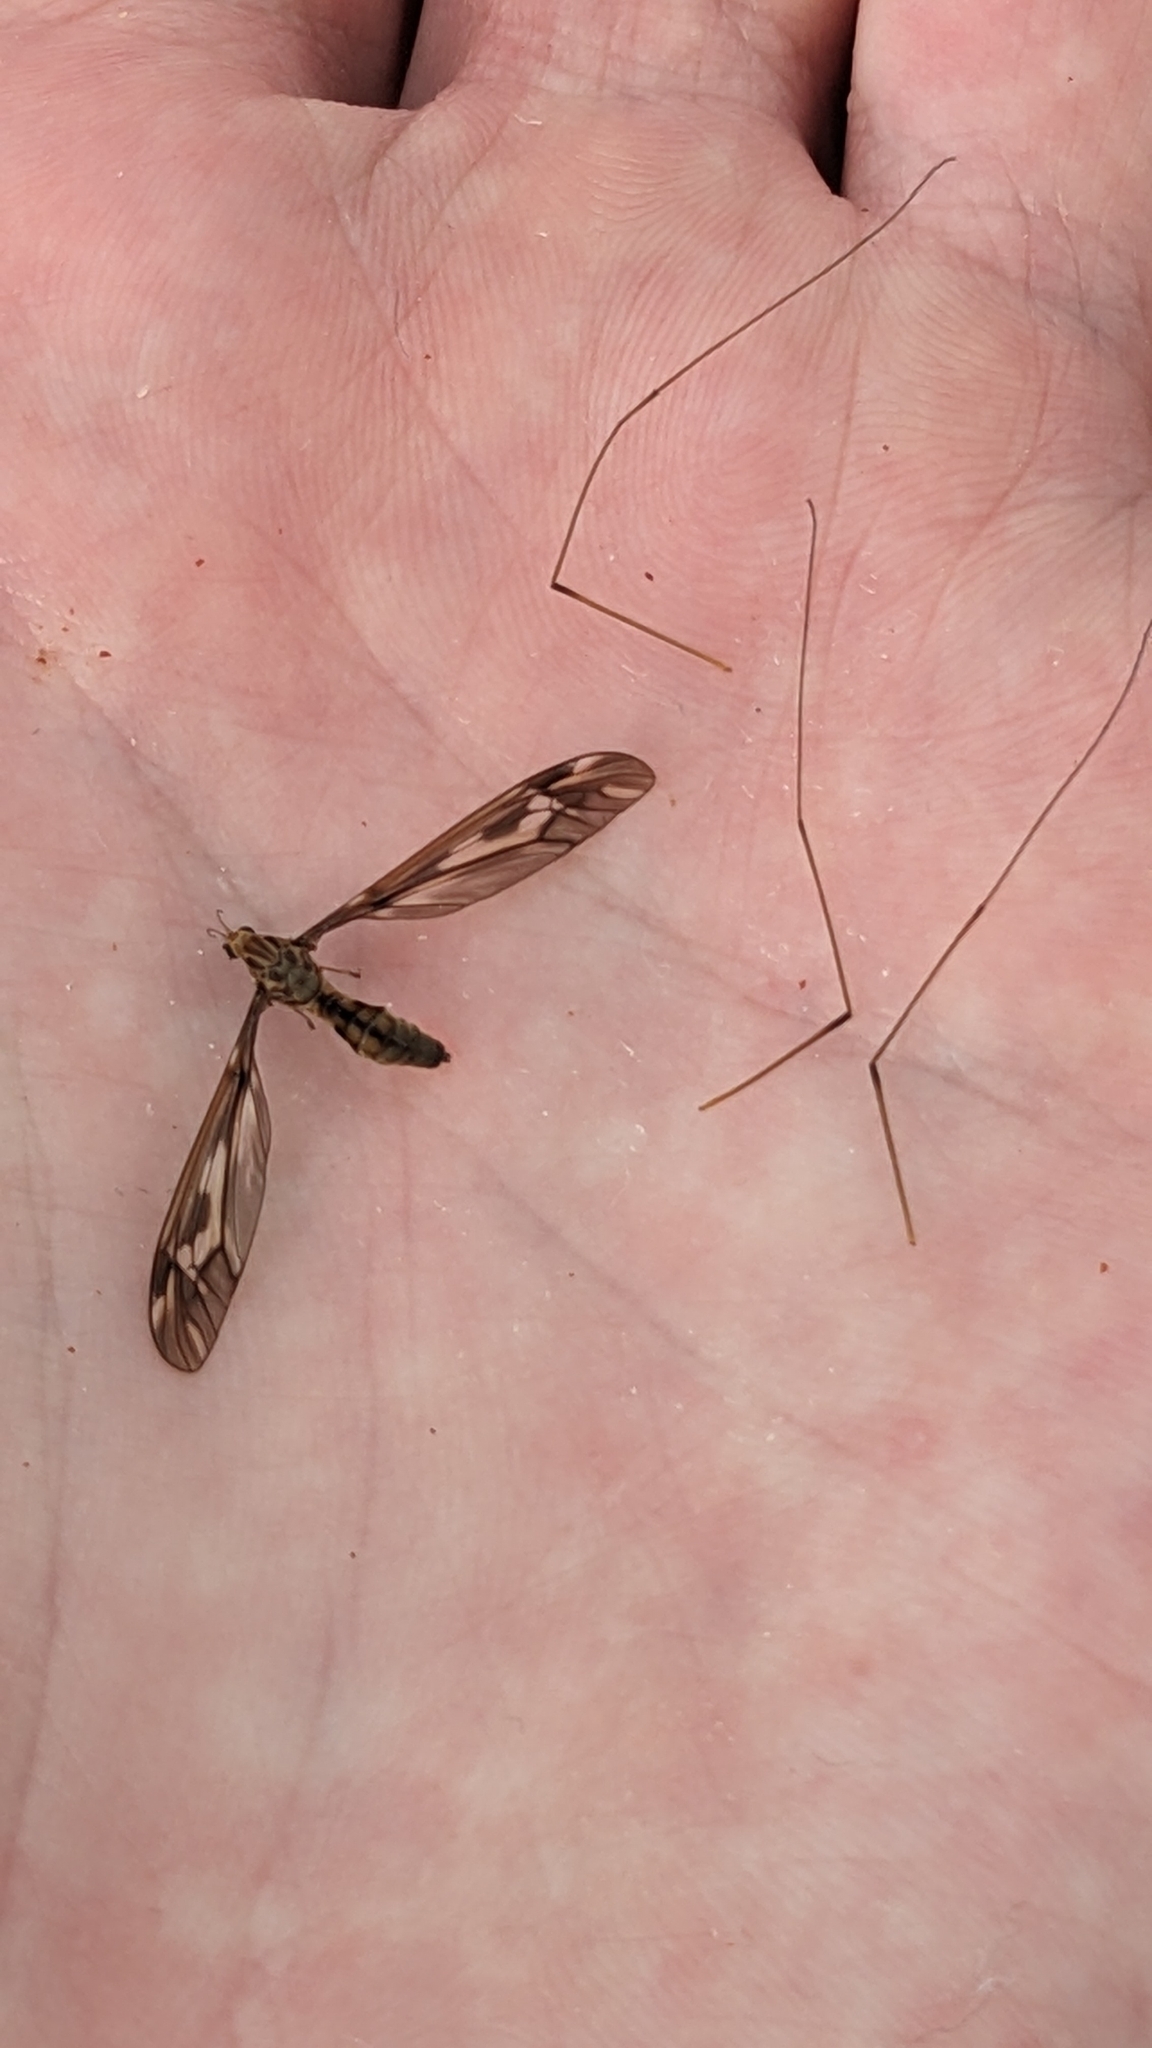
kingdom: Animalia
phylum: Arthropoda
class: Insecta
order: Diptera
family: Tipulidae
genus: Leptotarsus
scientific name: Leptotarsus huttoni
